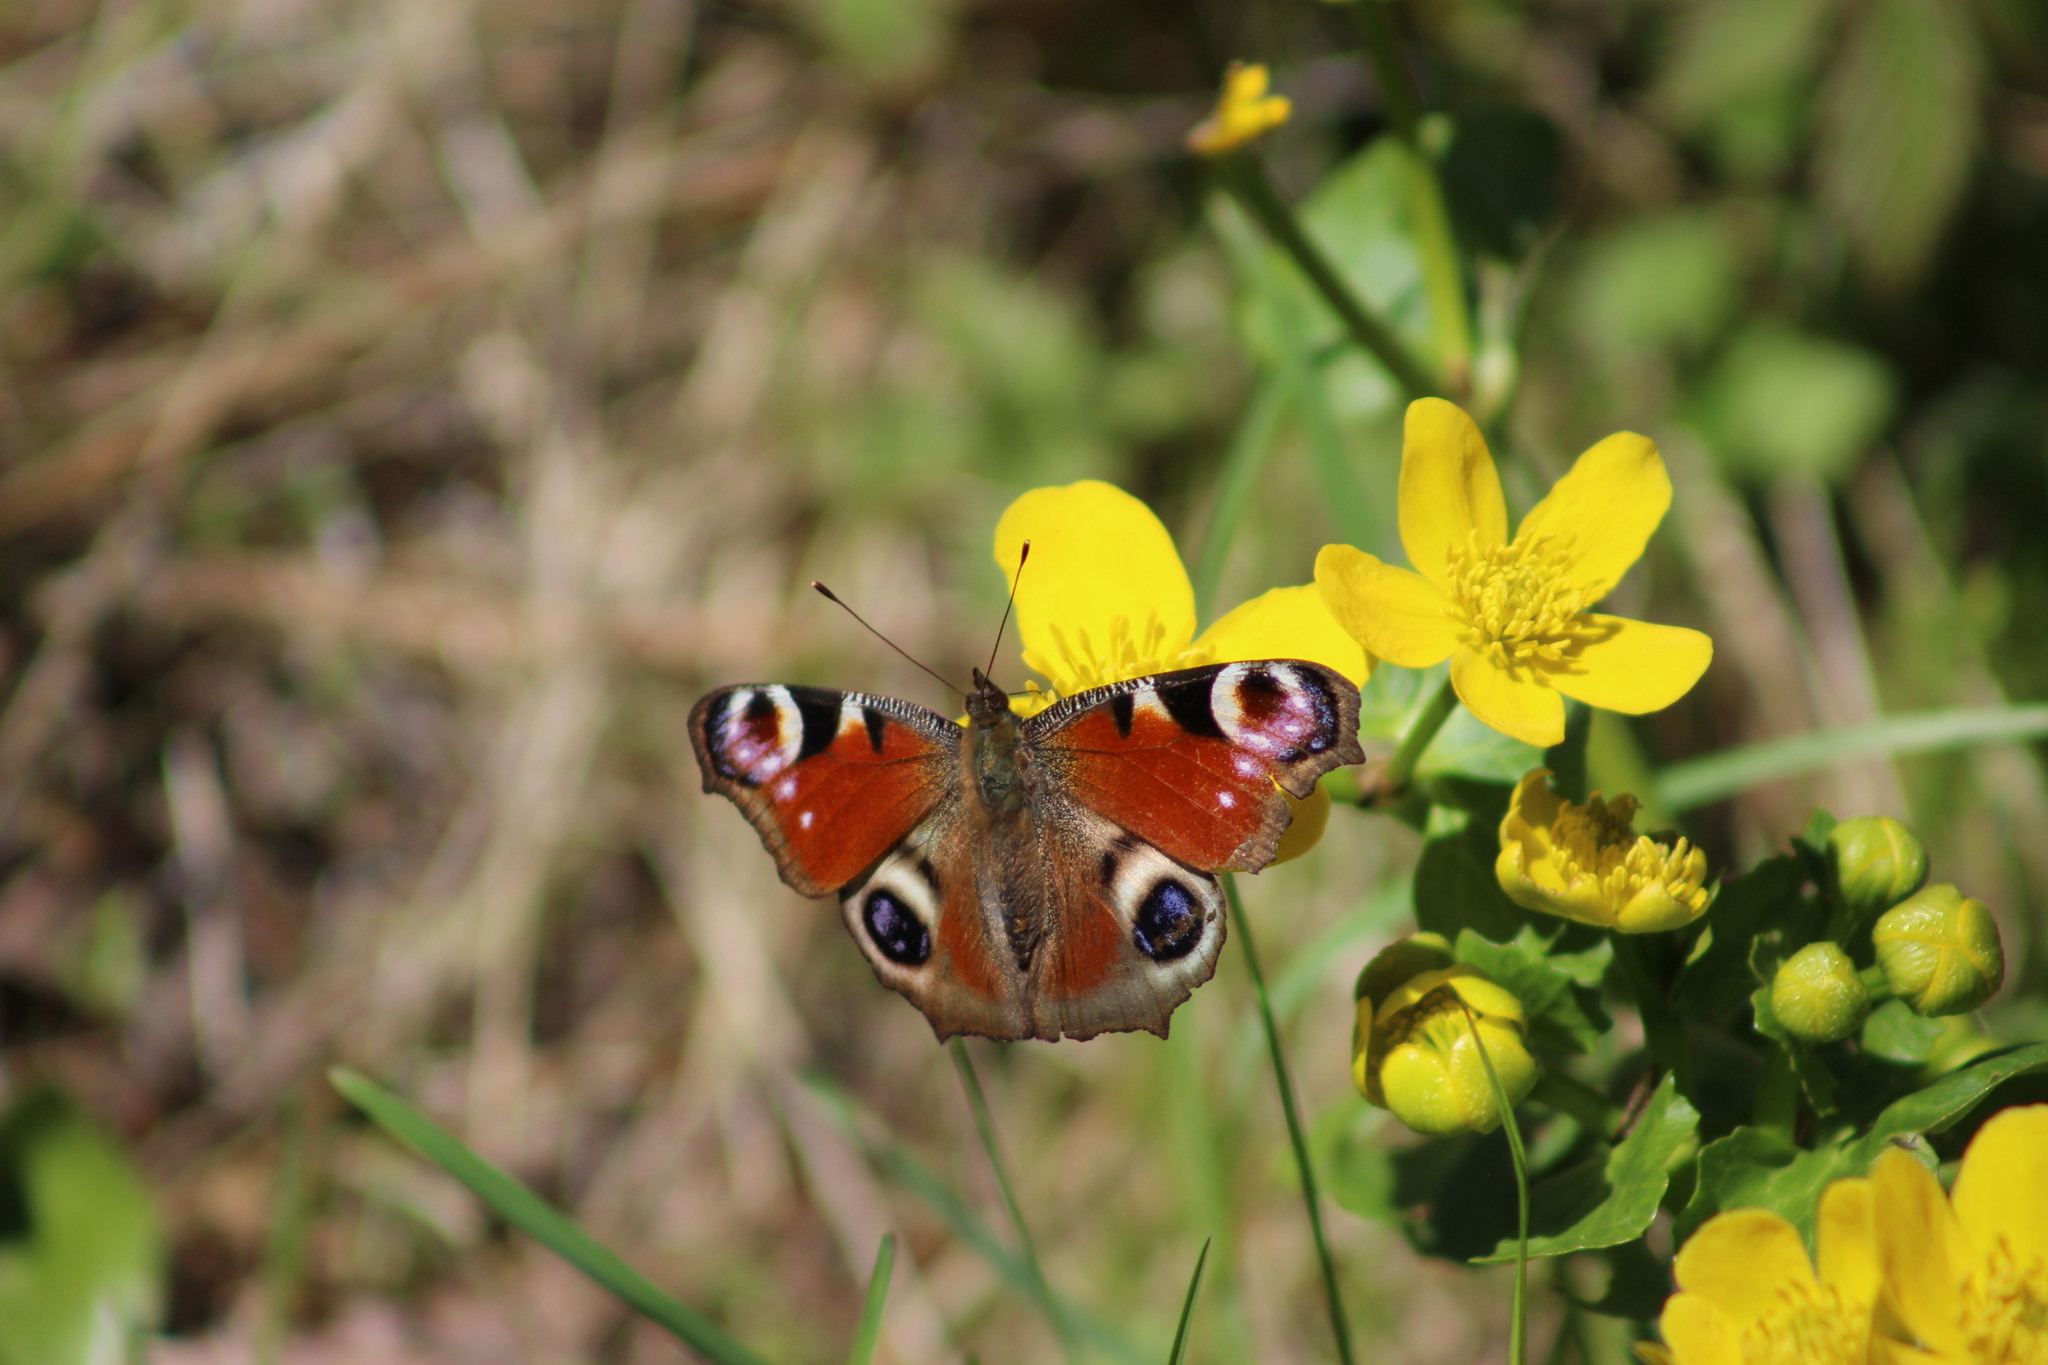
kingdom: Animalia
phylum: Arthropoda
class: Insecta
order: Lepidoptera
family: Nymphalidae
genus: Aglais
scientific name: Aglais io
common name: Peacock
